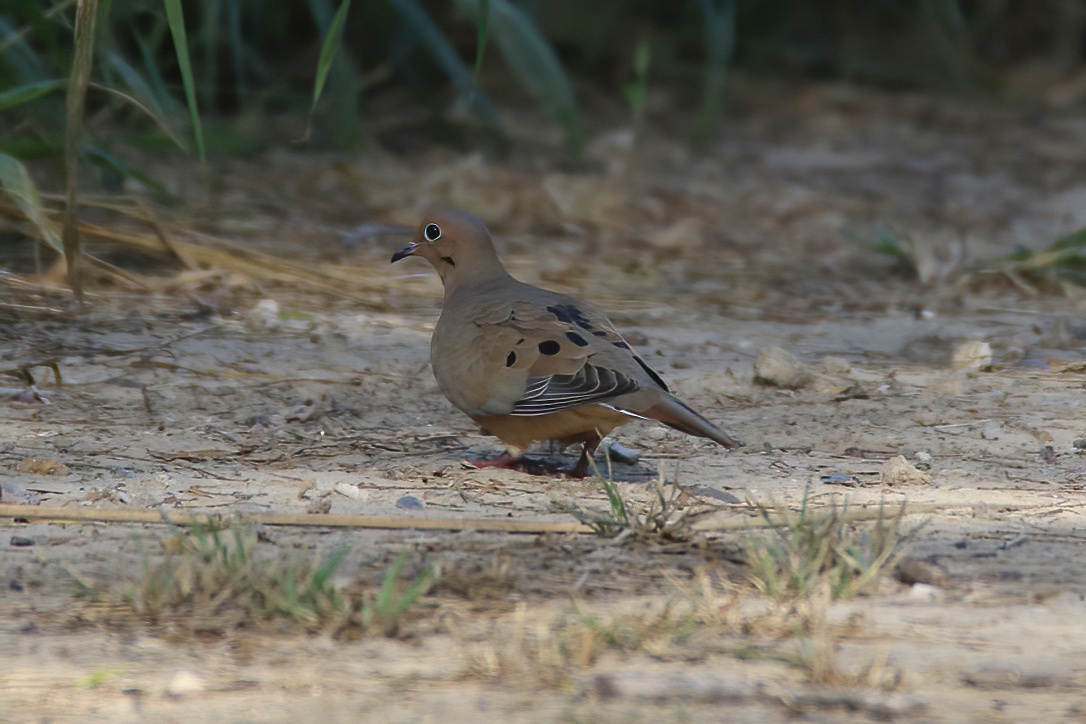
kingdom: Animalia
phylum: Chordata
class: Aves
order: Columbiformes
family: Columbidae
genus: Zenaida
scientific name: Zenaida macroura
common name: Mourning dove
